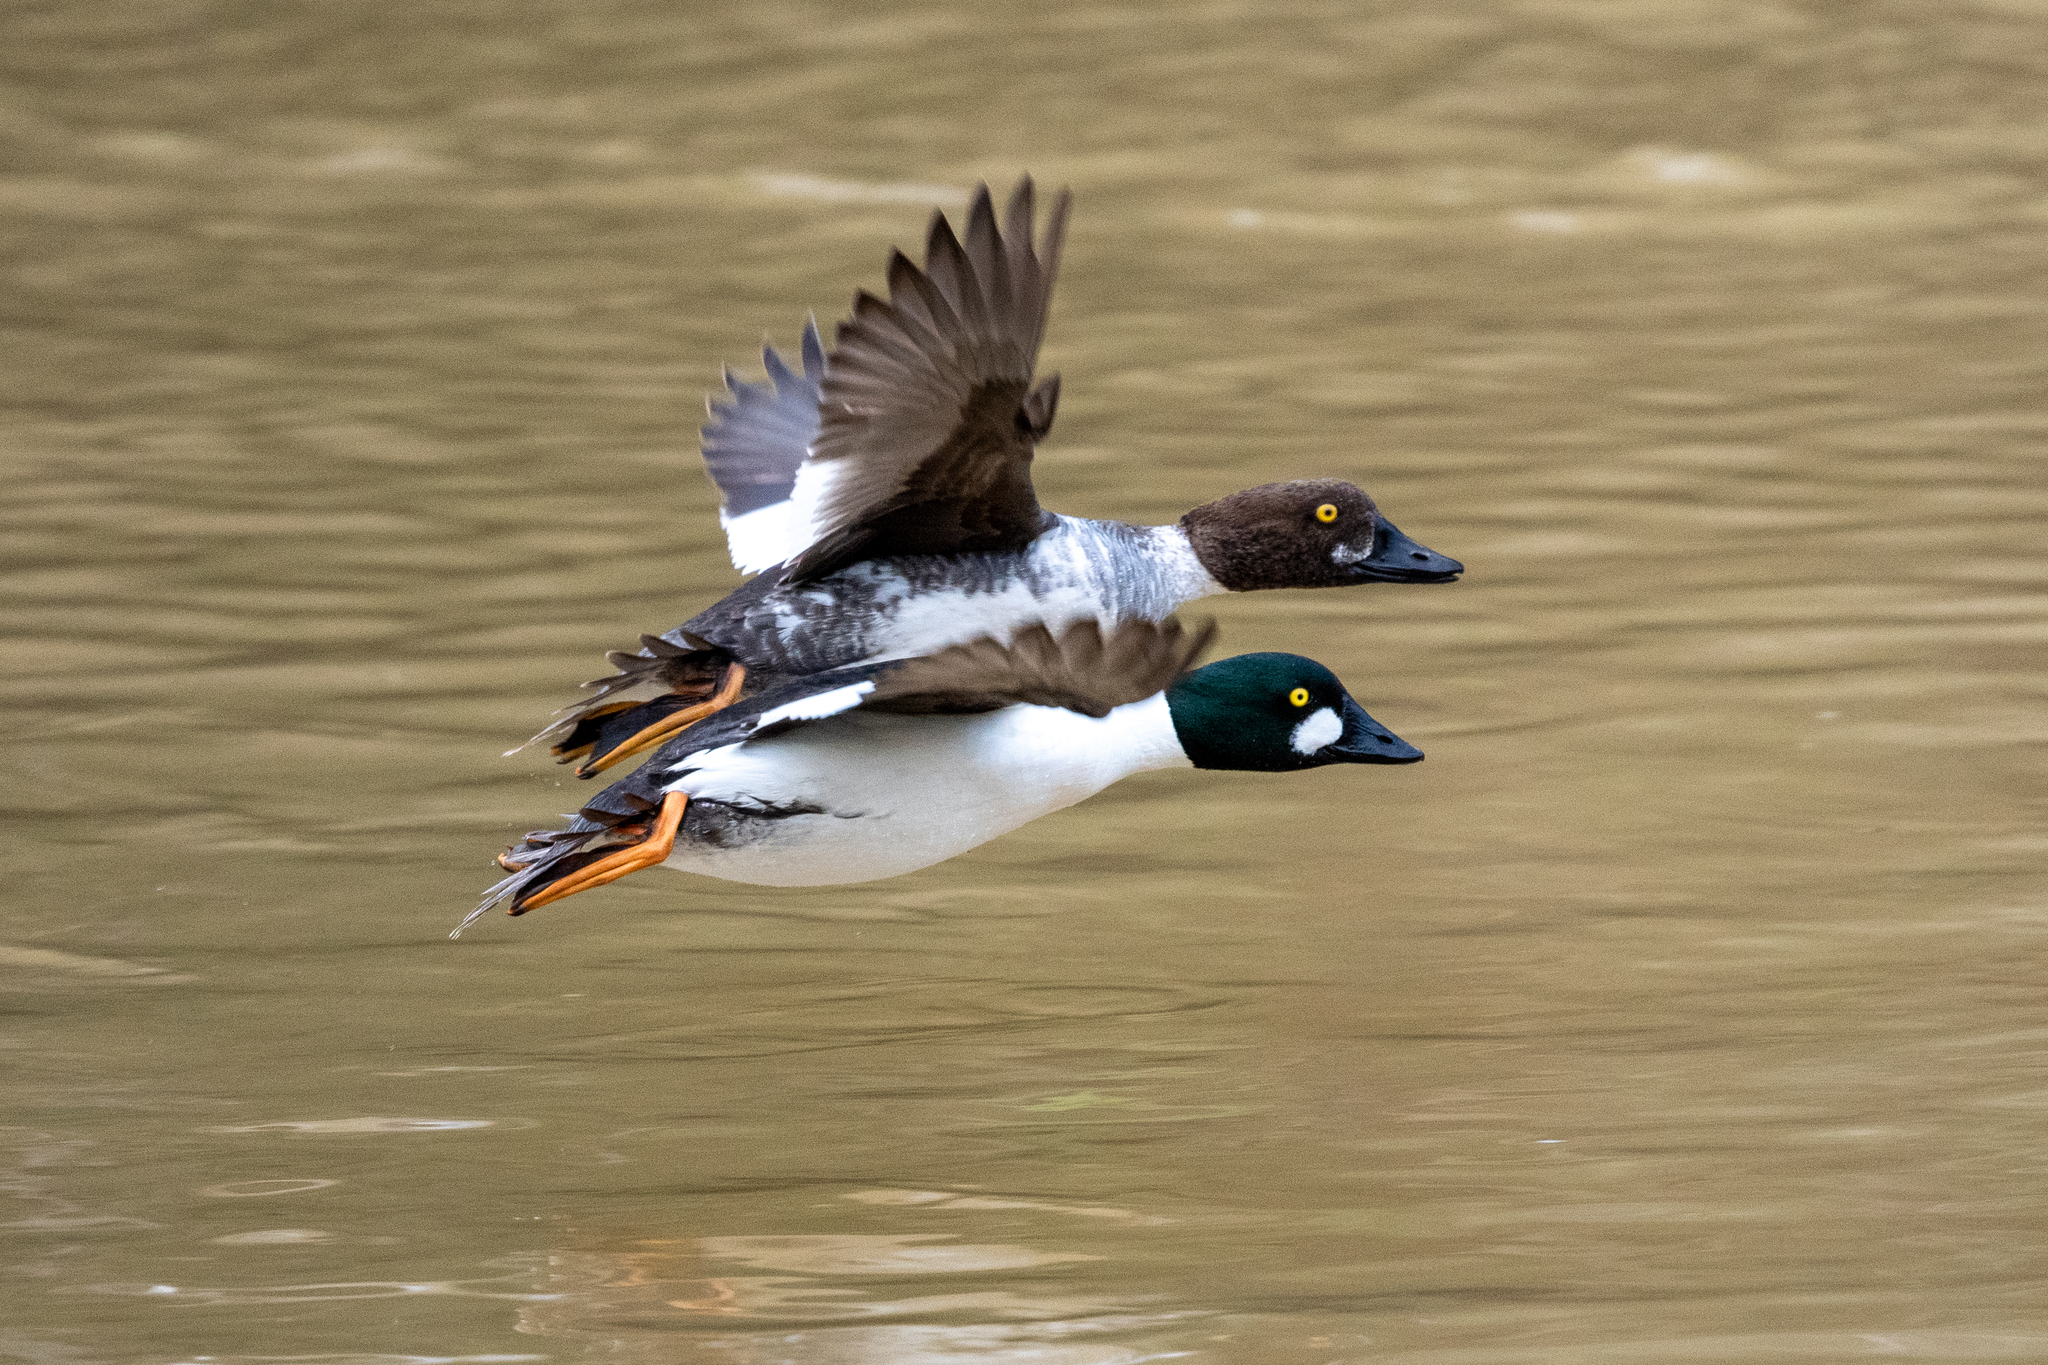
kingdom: Animalia
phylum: Chordata
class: Aves
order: Anseriformes
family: Anatidae
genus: Bucephala
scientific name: Bucephala clangula
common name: Common goldeneye
